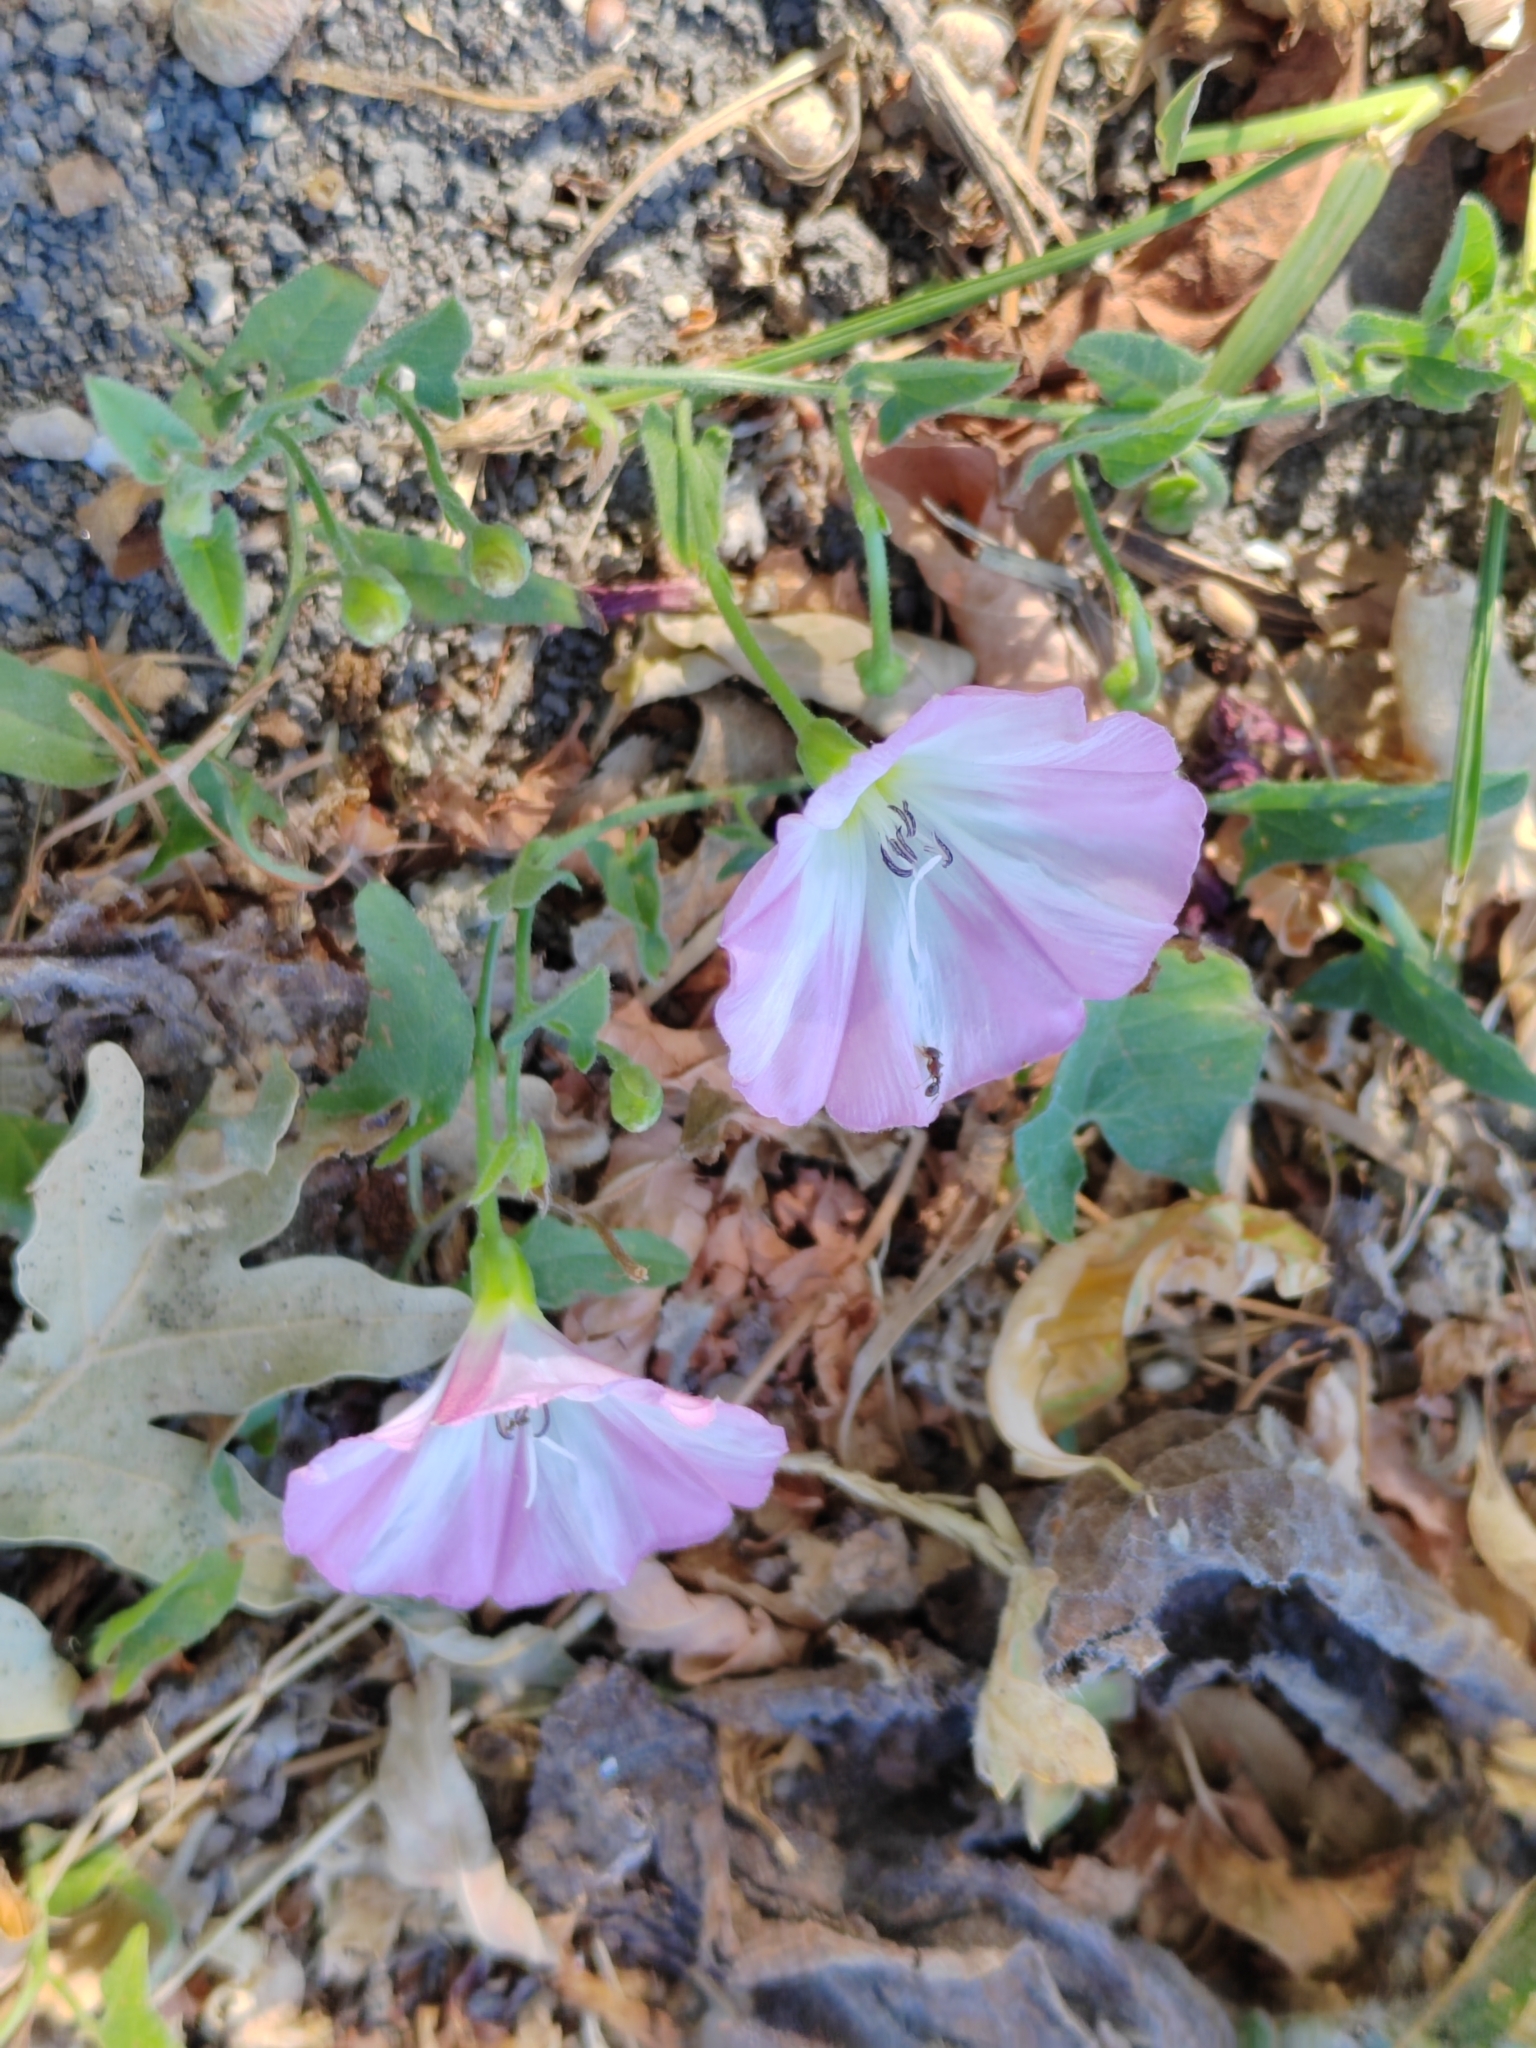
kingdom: Plantae
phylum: Tracheophyta
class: Magnoliopsida
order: Solanales
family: Convolvulaceae
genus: Convolvulus
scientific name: Convolvulus arvensis
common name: Field bindweed
